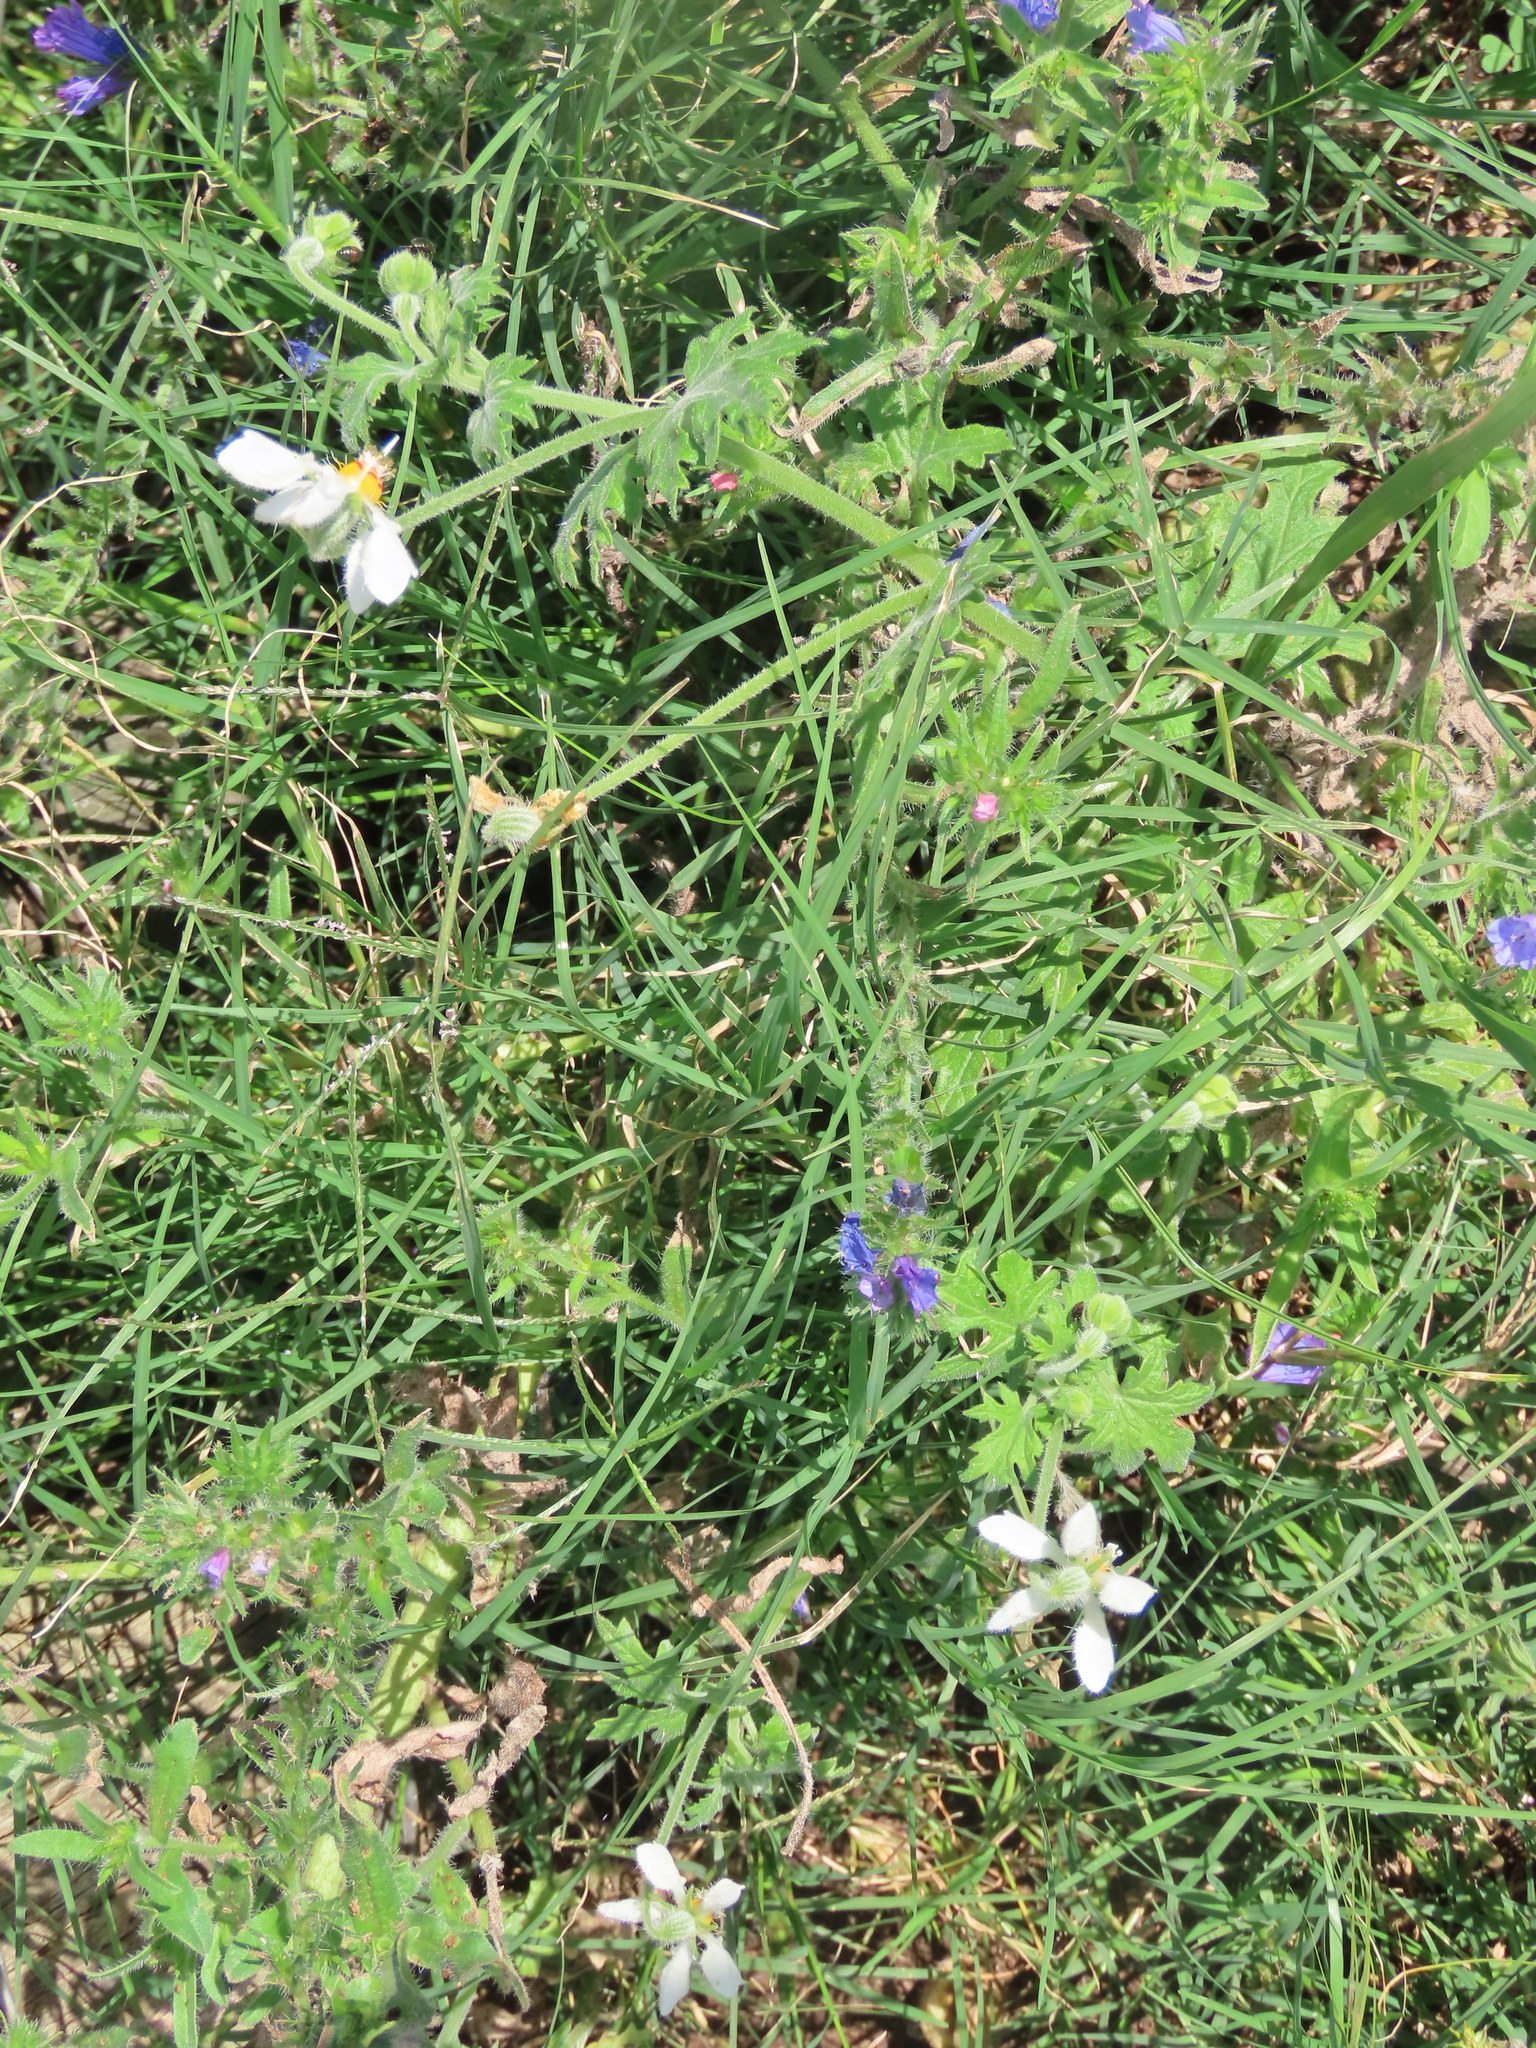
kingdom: Plantae
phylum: Tracheophyta
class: Magnoliopsida
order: Cornales
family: Loasaceae
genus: Blumenbachia
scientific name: Blumenbachia insignis
